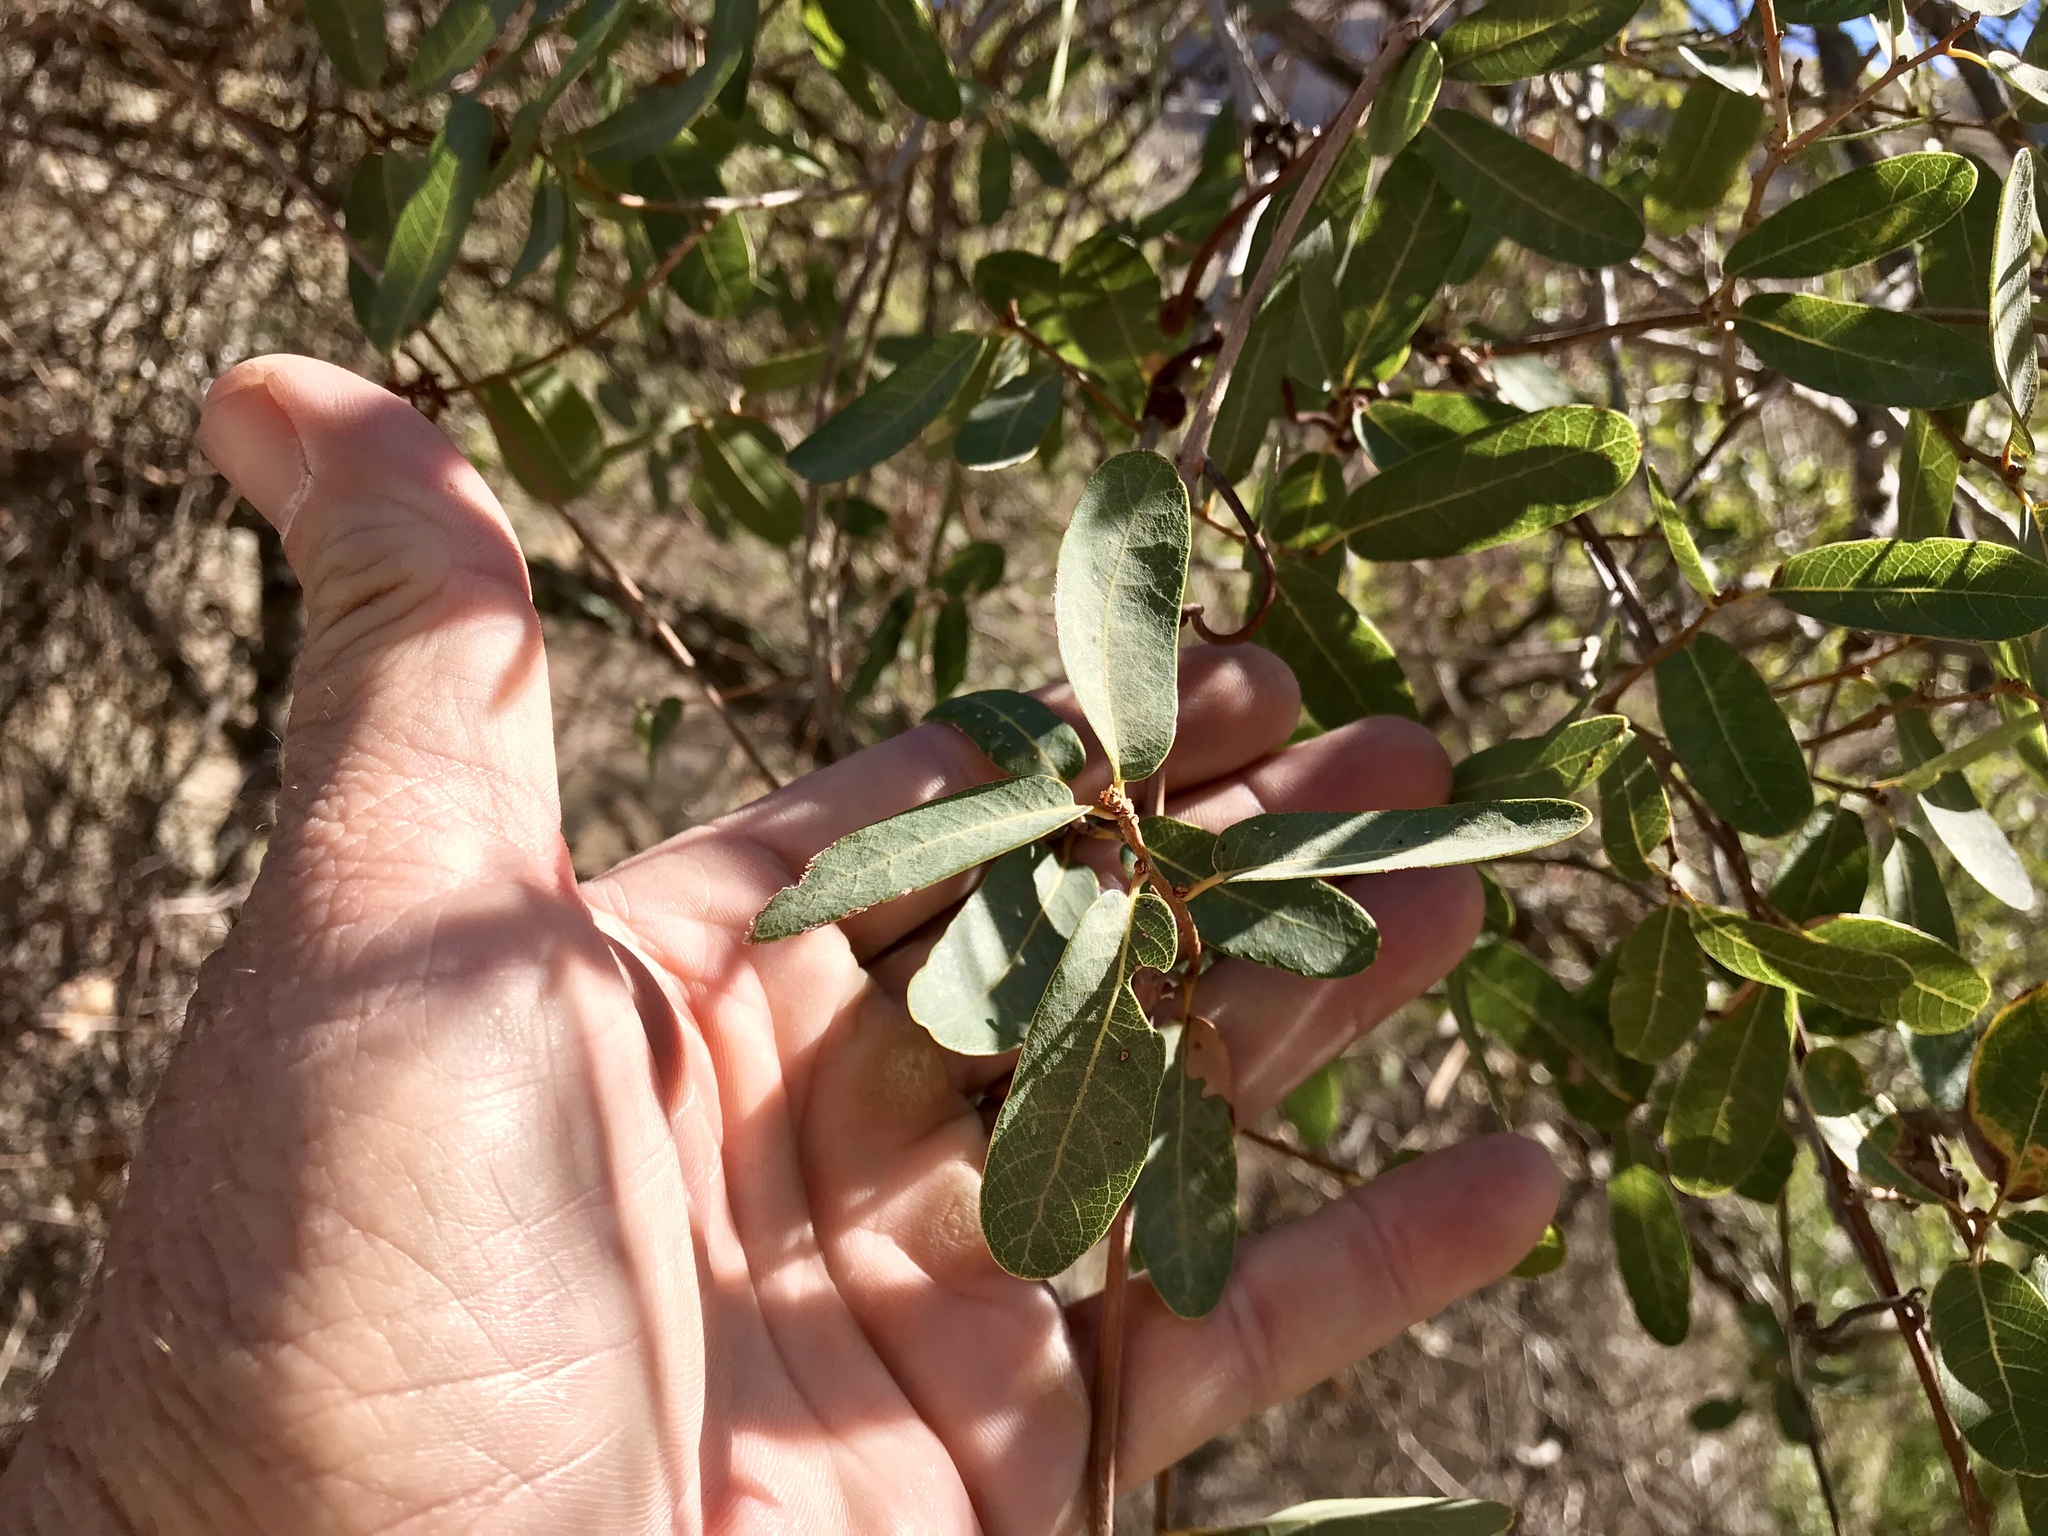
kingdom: Plantae
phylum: Tracheophyta
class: Magnoliopsida
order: Fagales
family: Fagaceae
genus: Quercus
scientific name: Quercus oblongifolia
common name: Mexican blue oak
